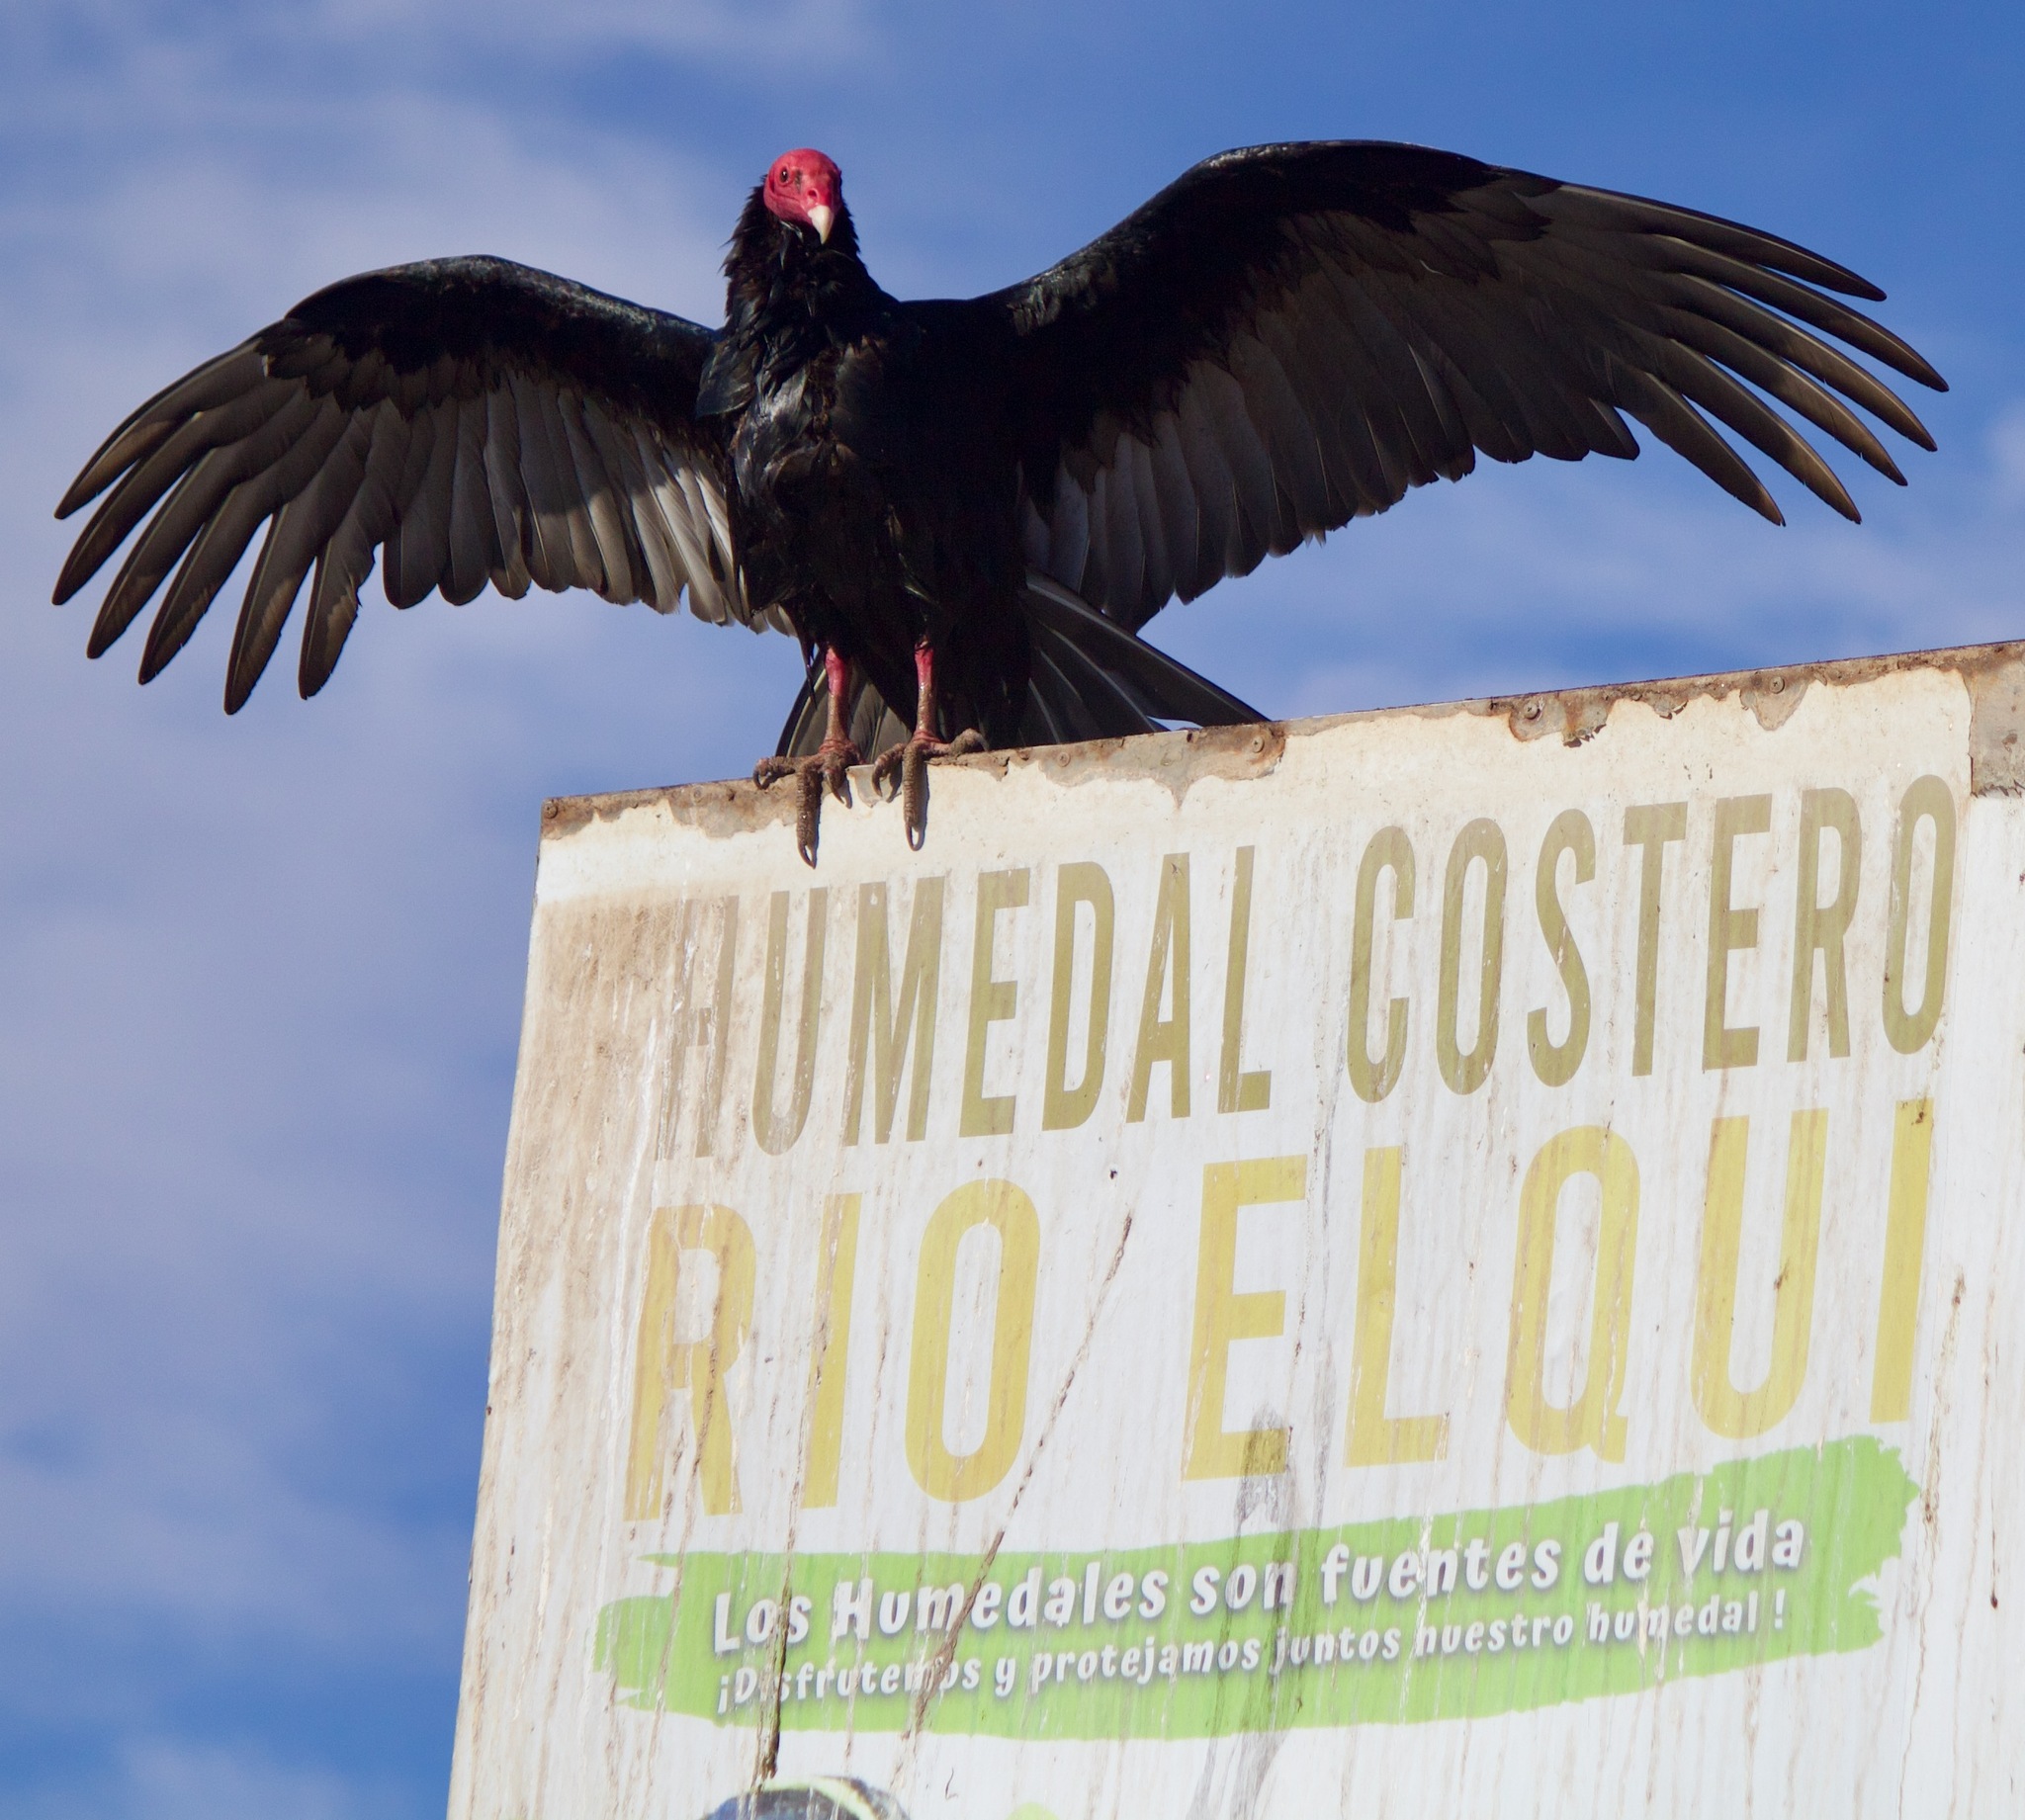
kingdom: Animalia
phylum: Chordata
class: Aves
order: Accipitriformes
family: Cathartidae
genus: Cathartes
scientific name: Cathartes aura
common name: Turkey vulture
